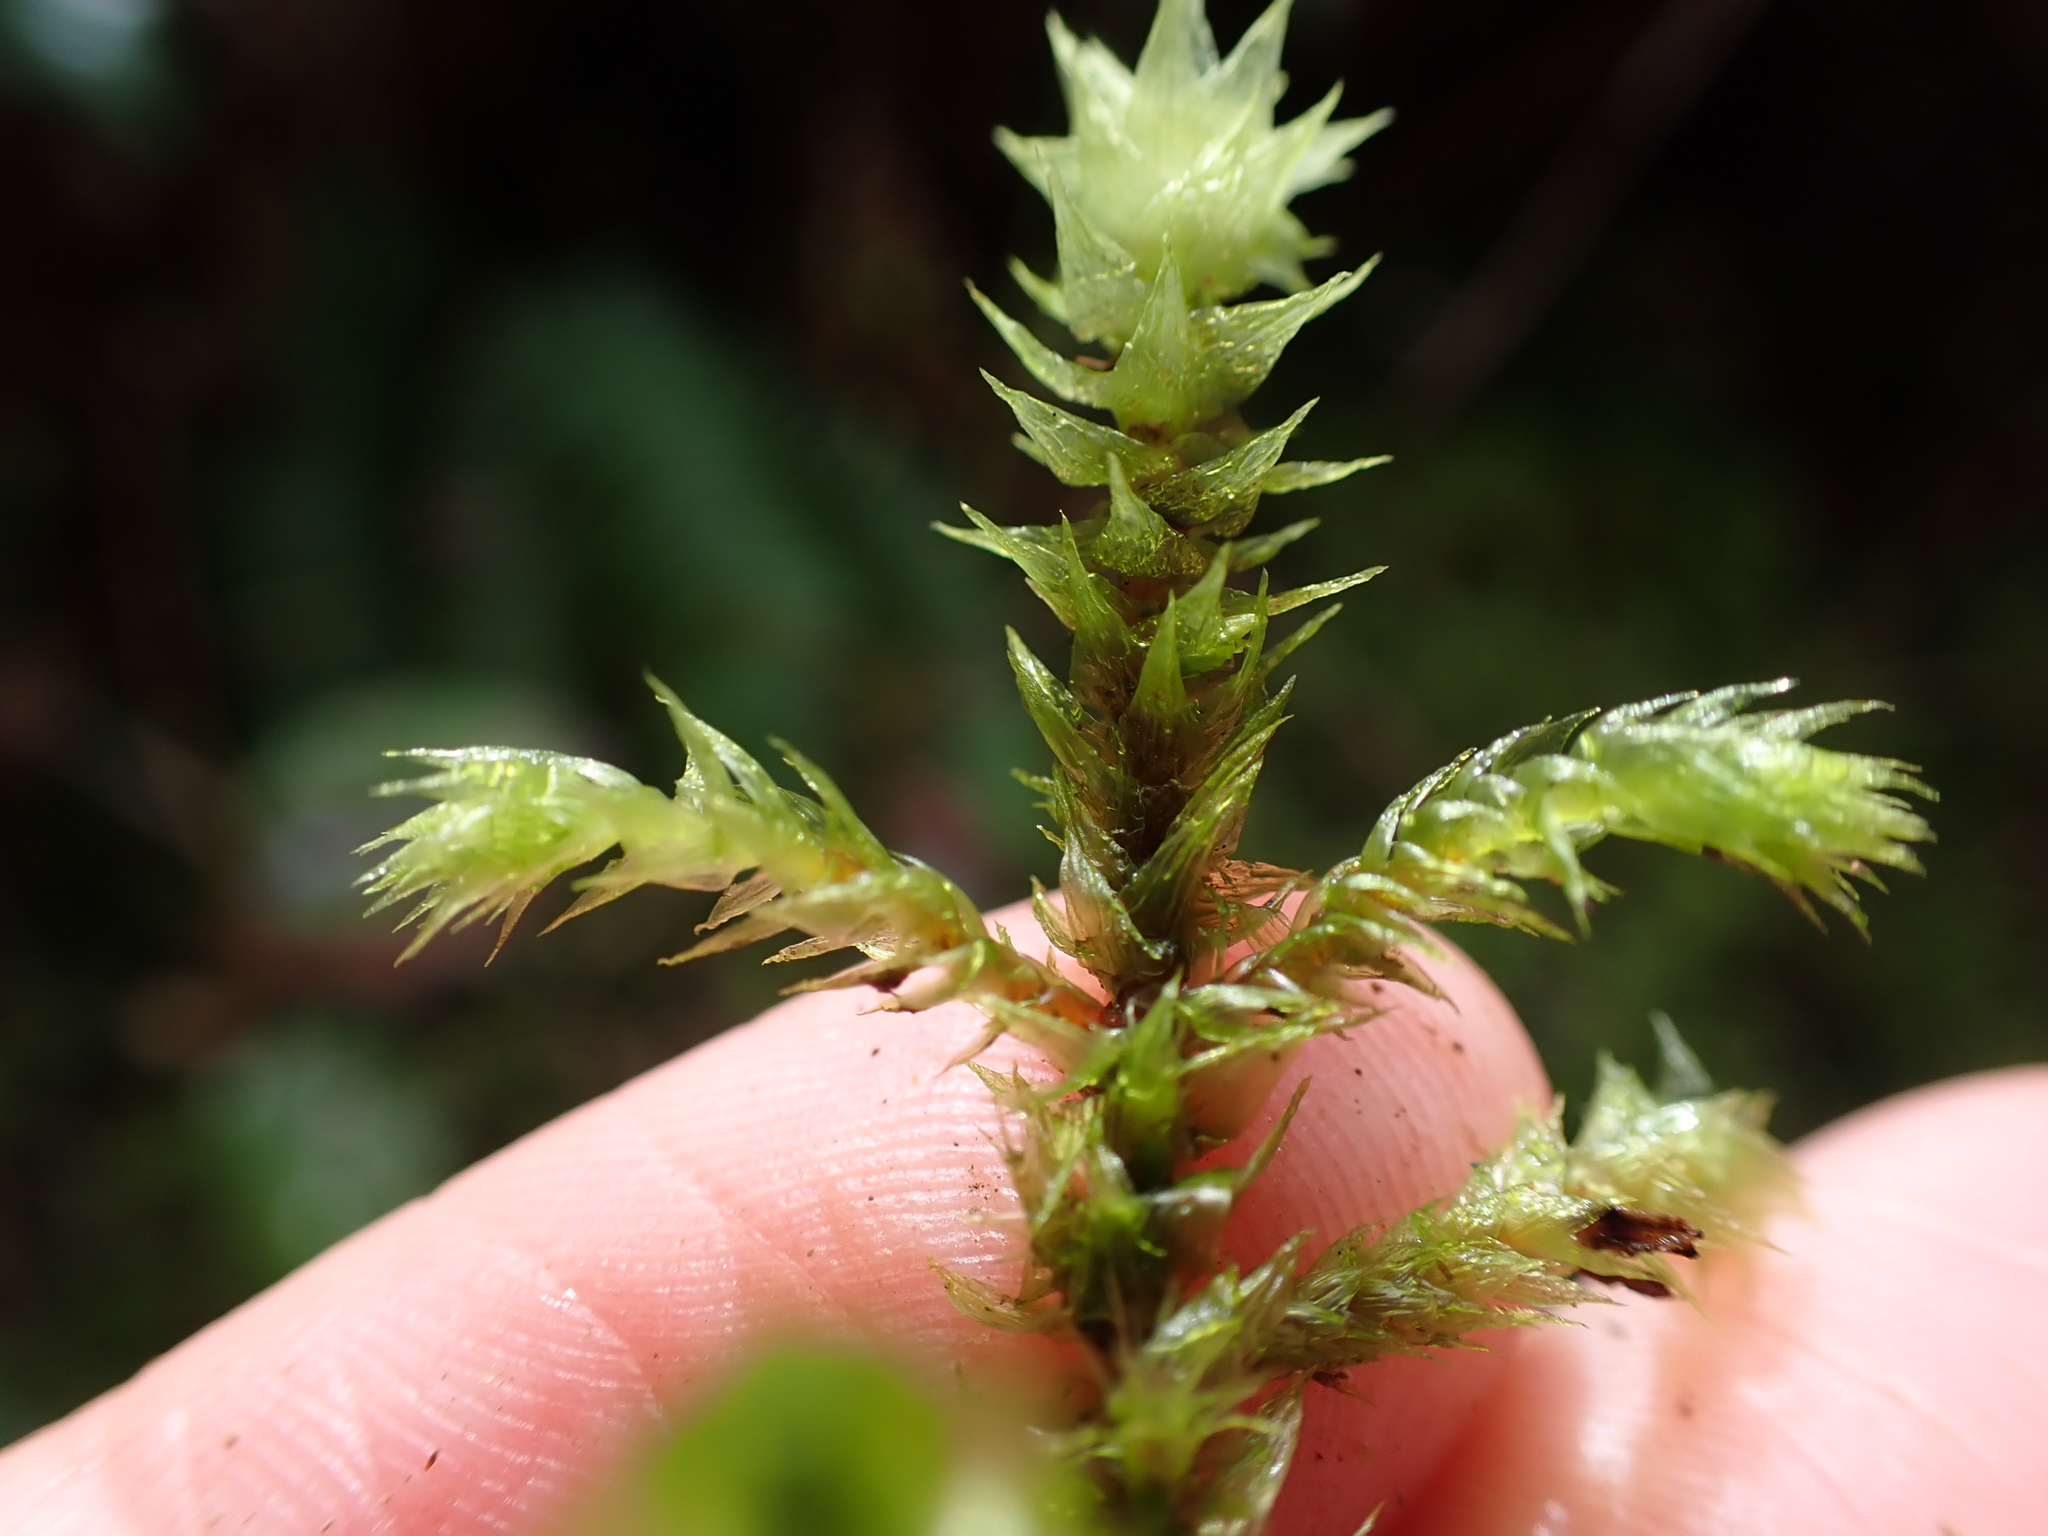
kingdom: Plantae
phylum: Bryophyta
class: Bryopsida
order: Hypnales
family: Hylocomiaceae
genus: Hylocomiadelphus
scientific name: Hylocomiadelphus triquetrus
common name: Rough goose neck moss
